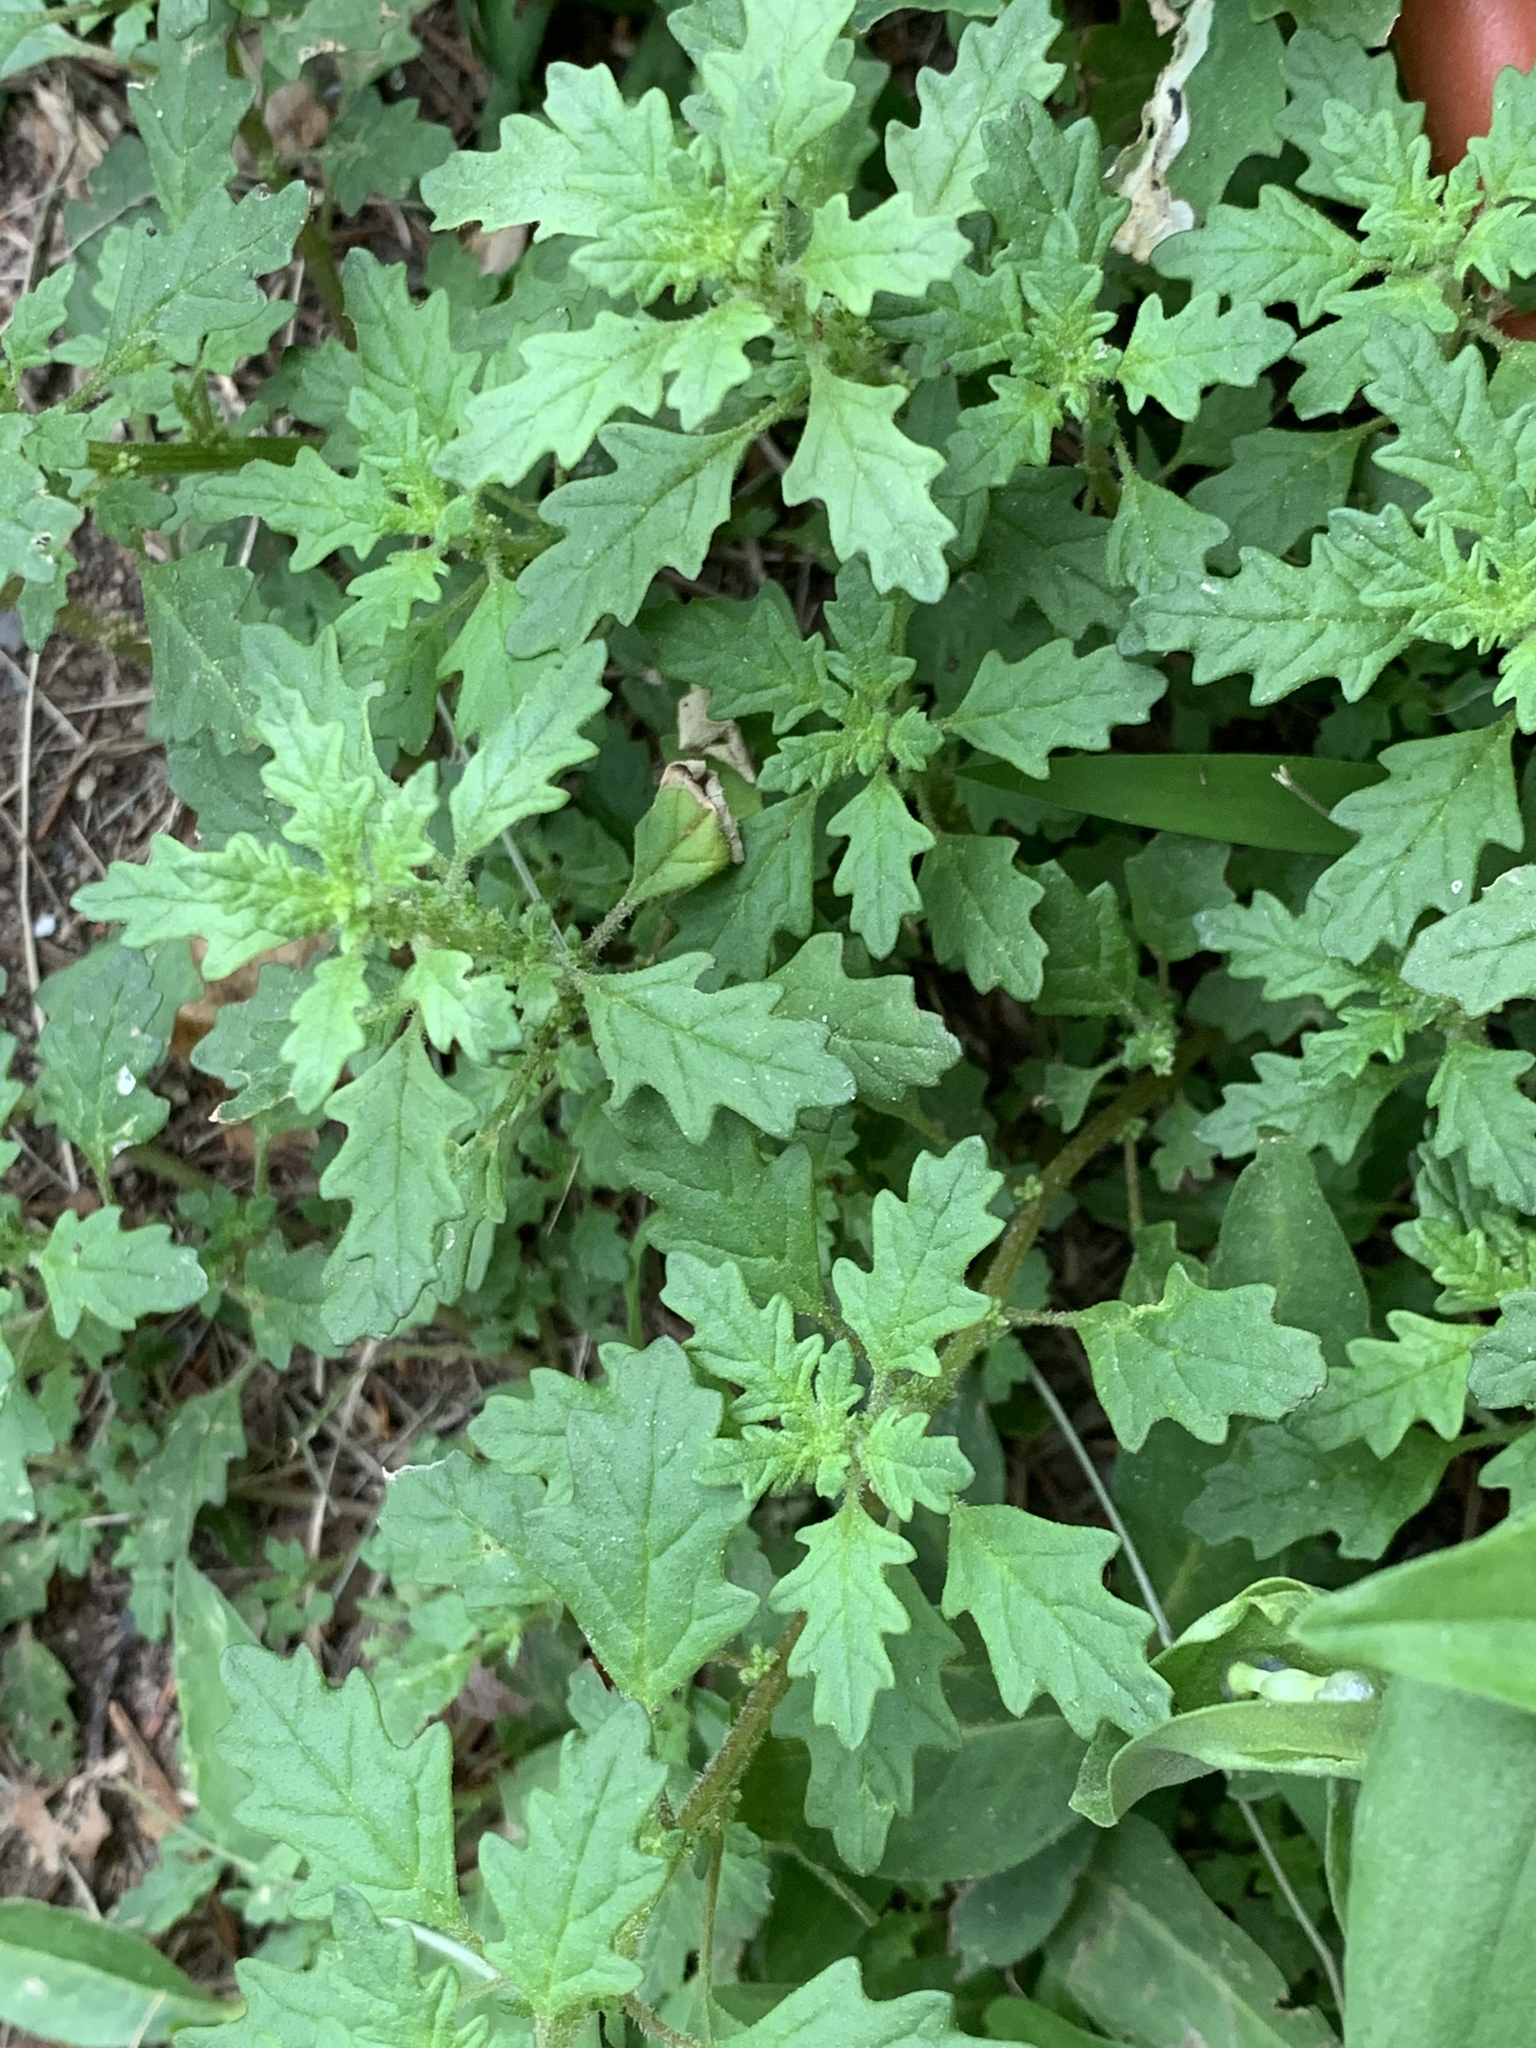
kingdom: Plantae
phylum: Tracheophyta
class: Magnoliopsida
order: Caryophyllales
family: Amaranthaceae
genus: Dysphania
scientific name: Dysphania pumilio
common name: Clammy goosefoot
